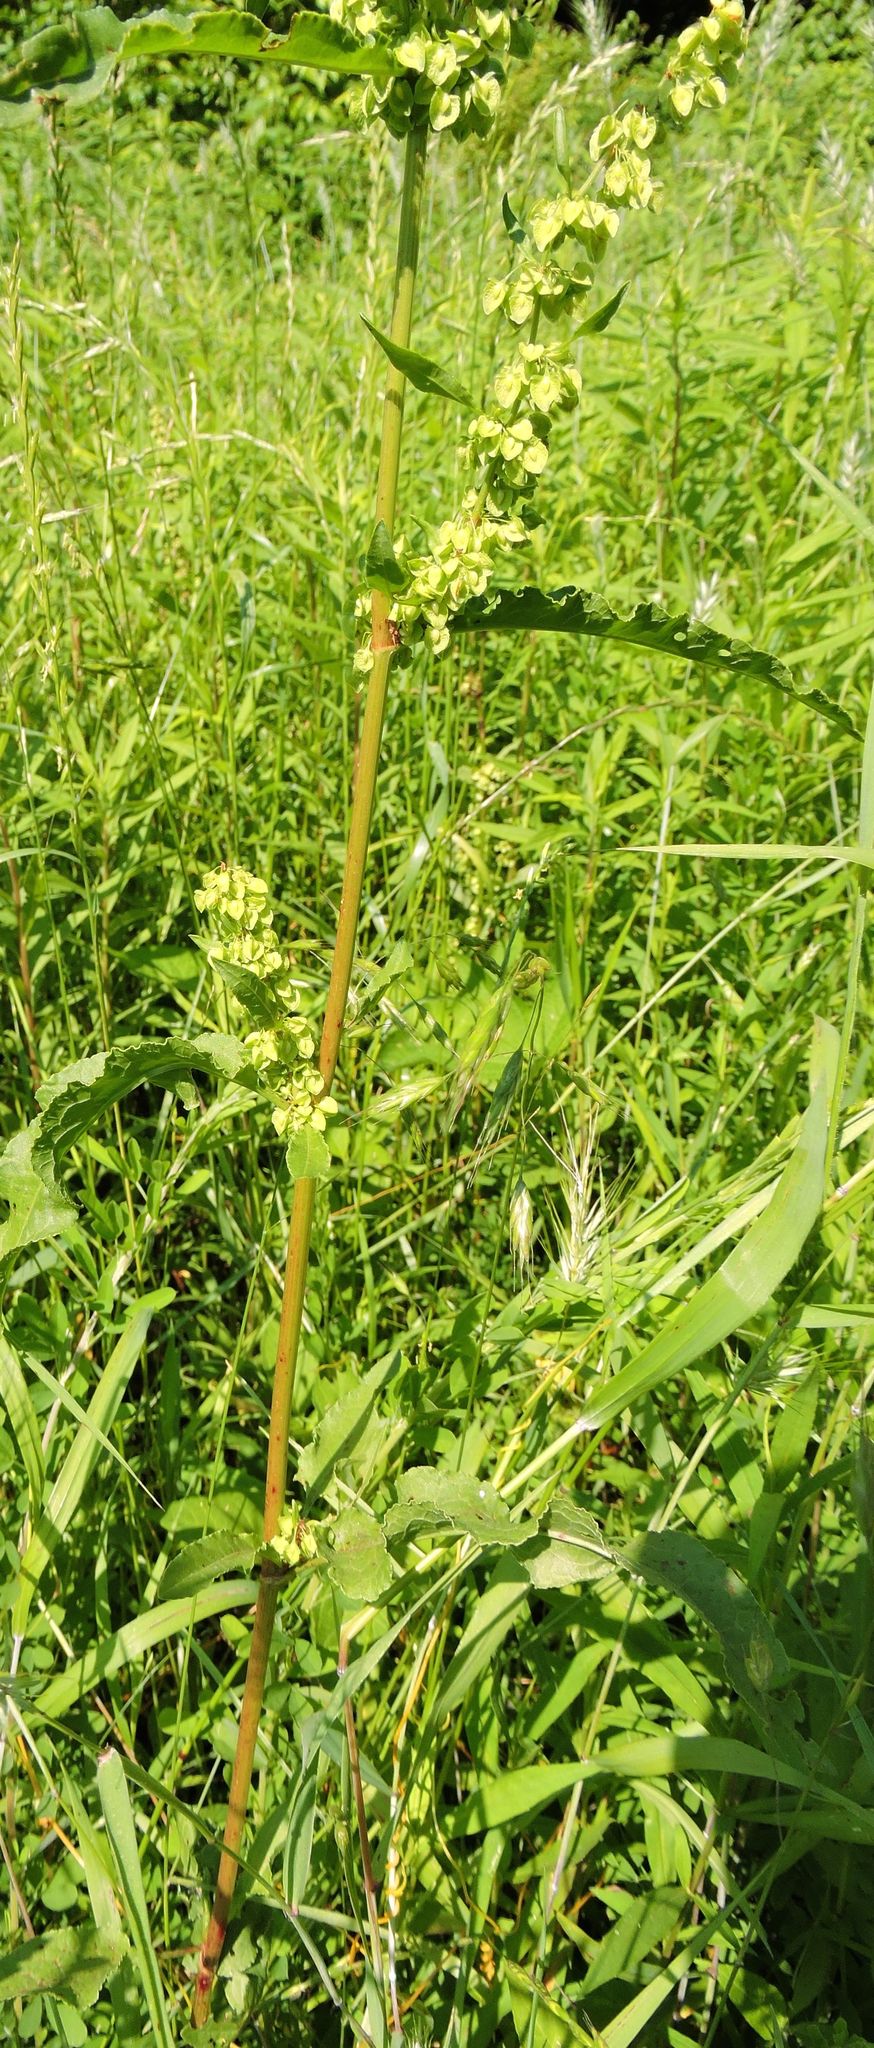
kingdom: Plantae
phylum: Tracheophyta
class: Magnoliopsida
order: Caryophyllales
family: Polygonaceae
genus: Rumex
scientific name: Rumex crispus
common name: Curled dock
